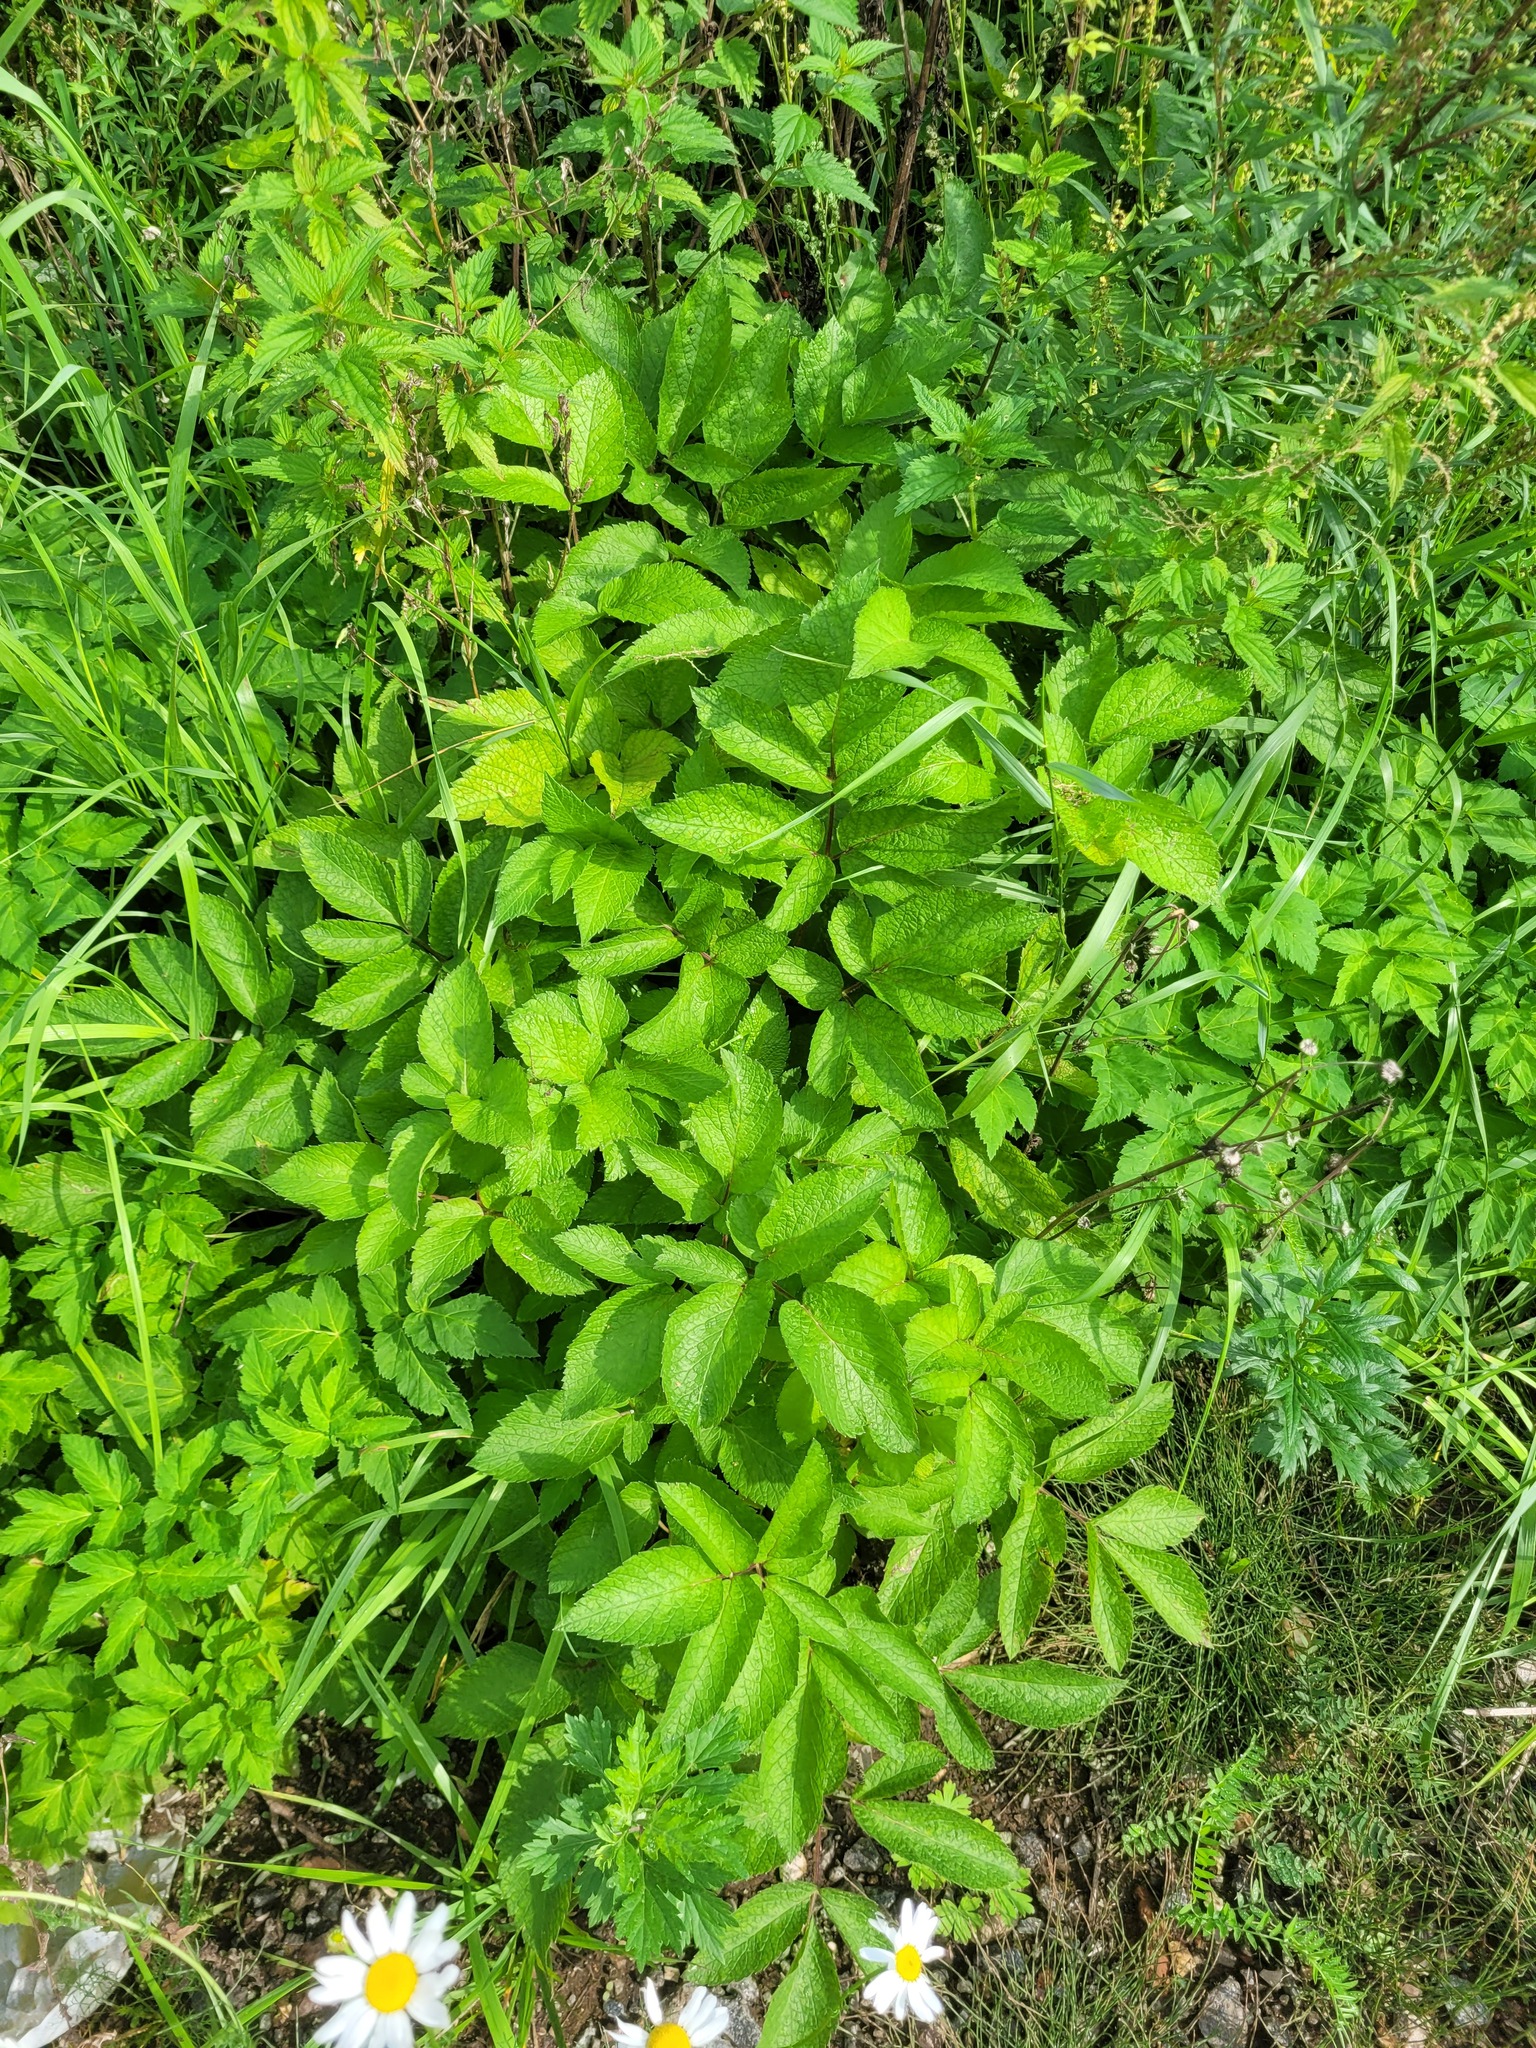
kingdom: Plantae
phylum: Tracheophyta
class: Magnoliopsida
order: Apiales
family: Apiaceae
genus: Chaerophyllum
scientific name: Chaerophyllum aromaticum
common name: Broadleaf chervil
